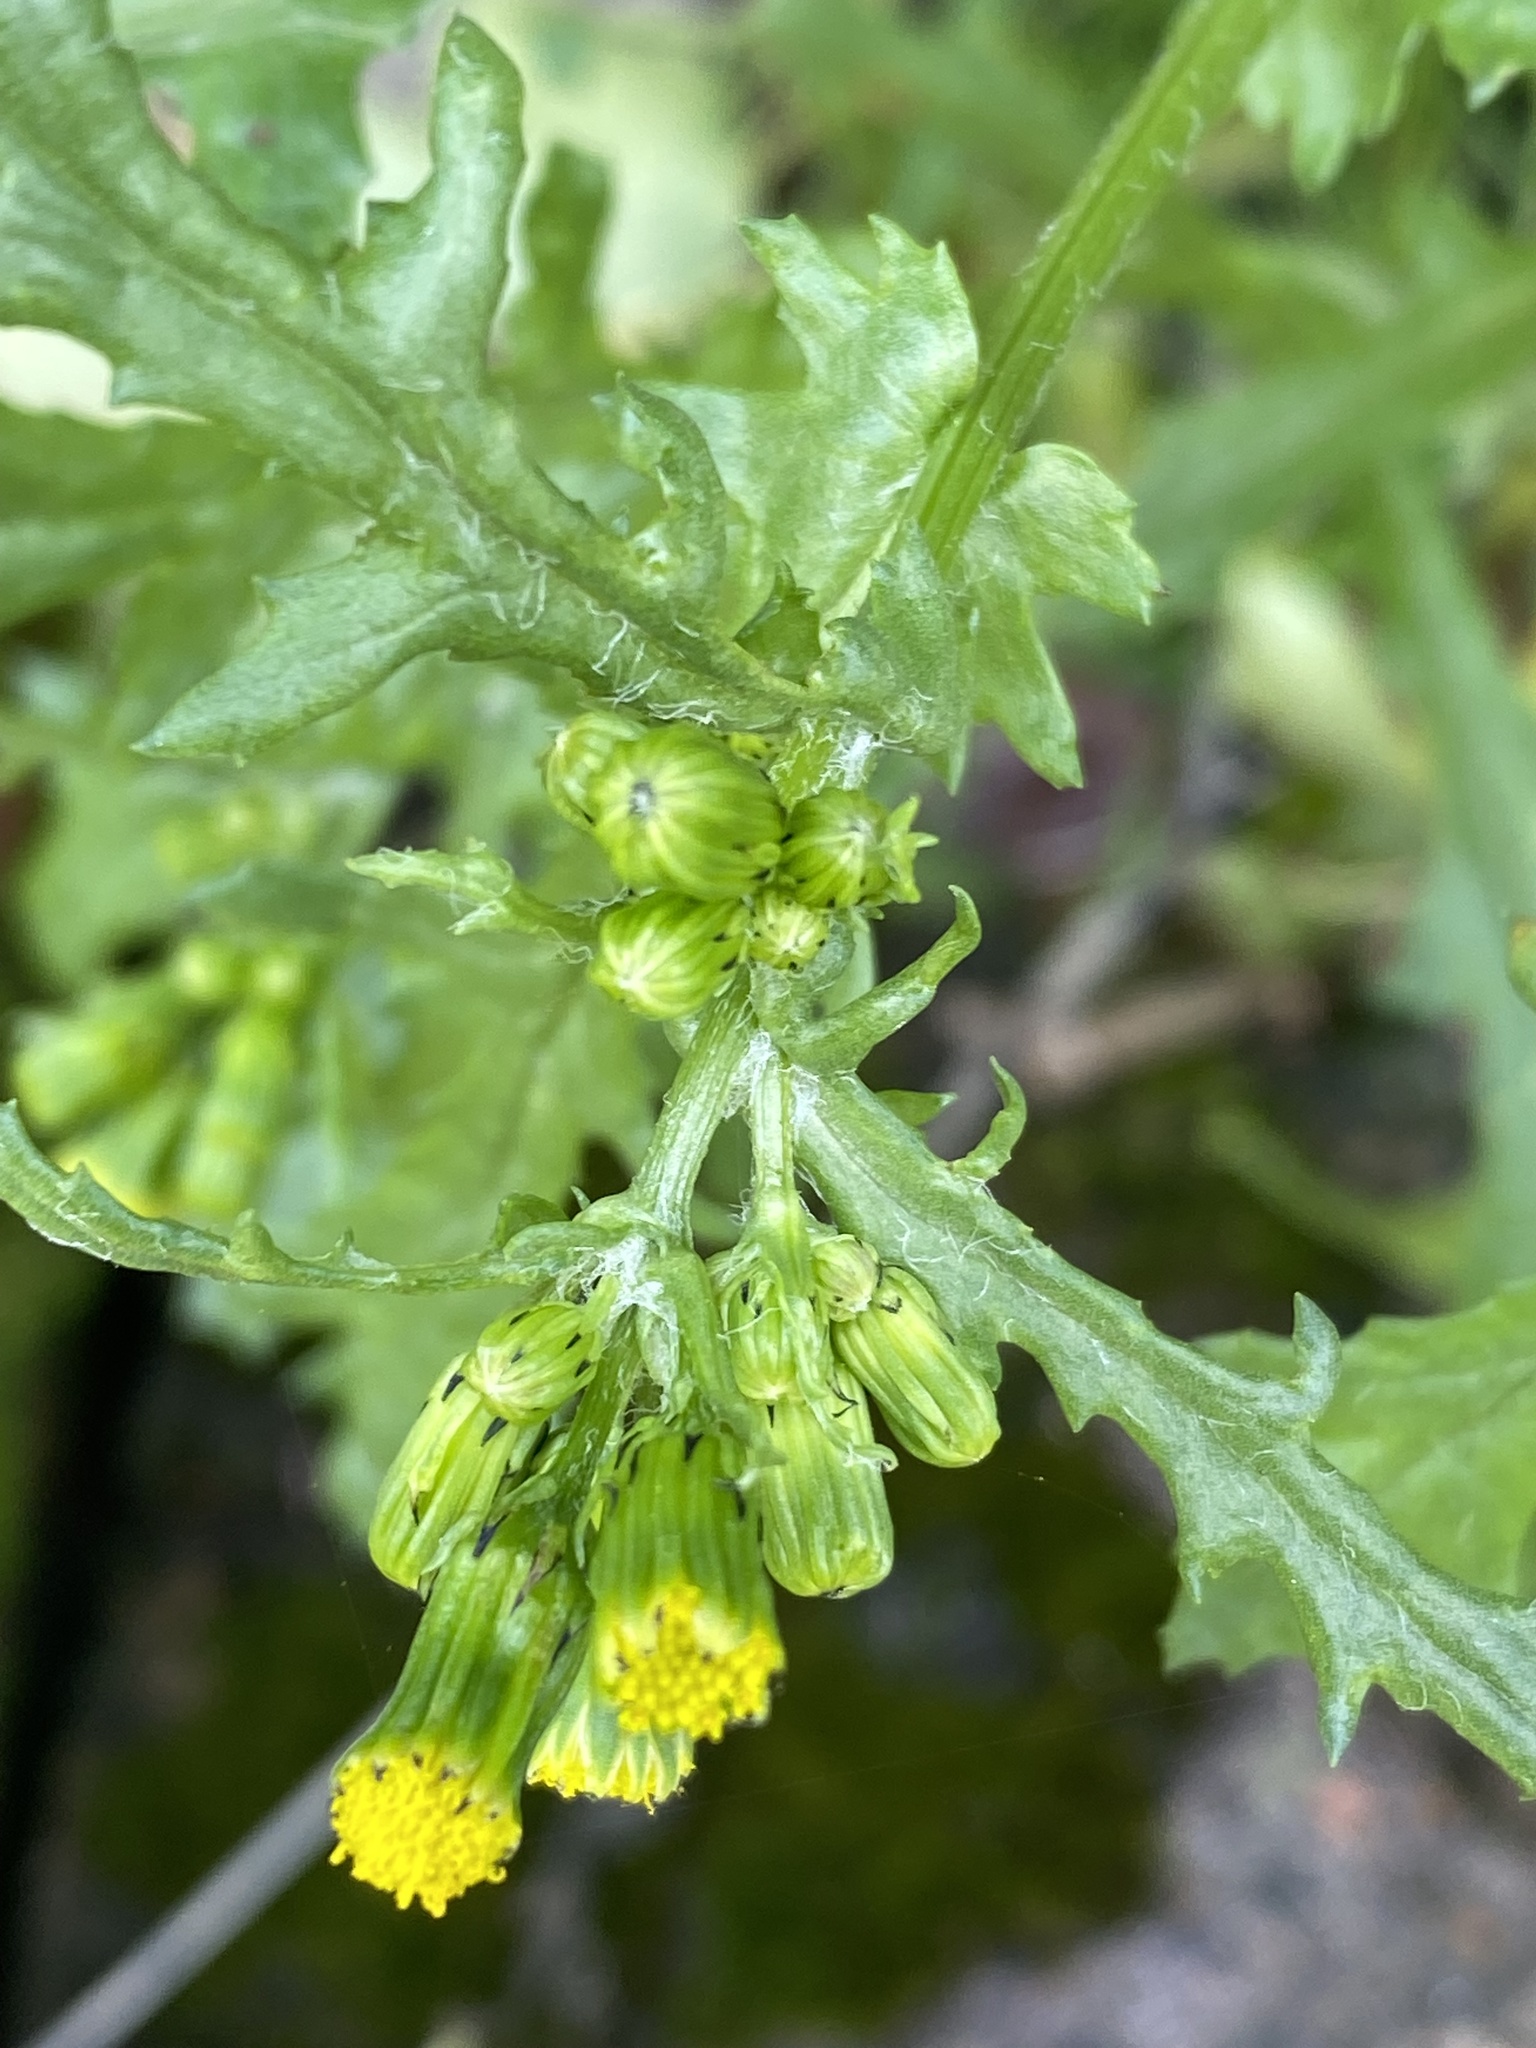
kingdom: Plantae
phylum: Tracheophyta
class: Magnoliopsida
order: Asterales
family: Asteraceae
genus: Senecio
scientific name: Senecio vulgaris
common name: Old-man-in-the-spring
